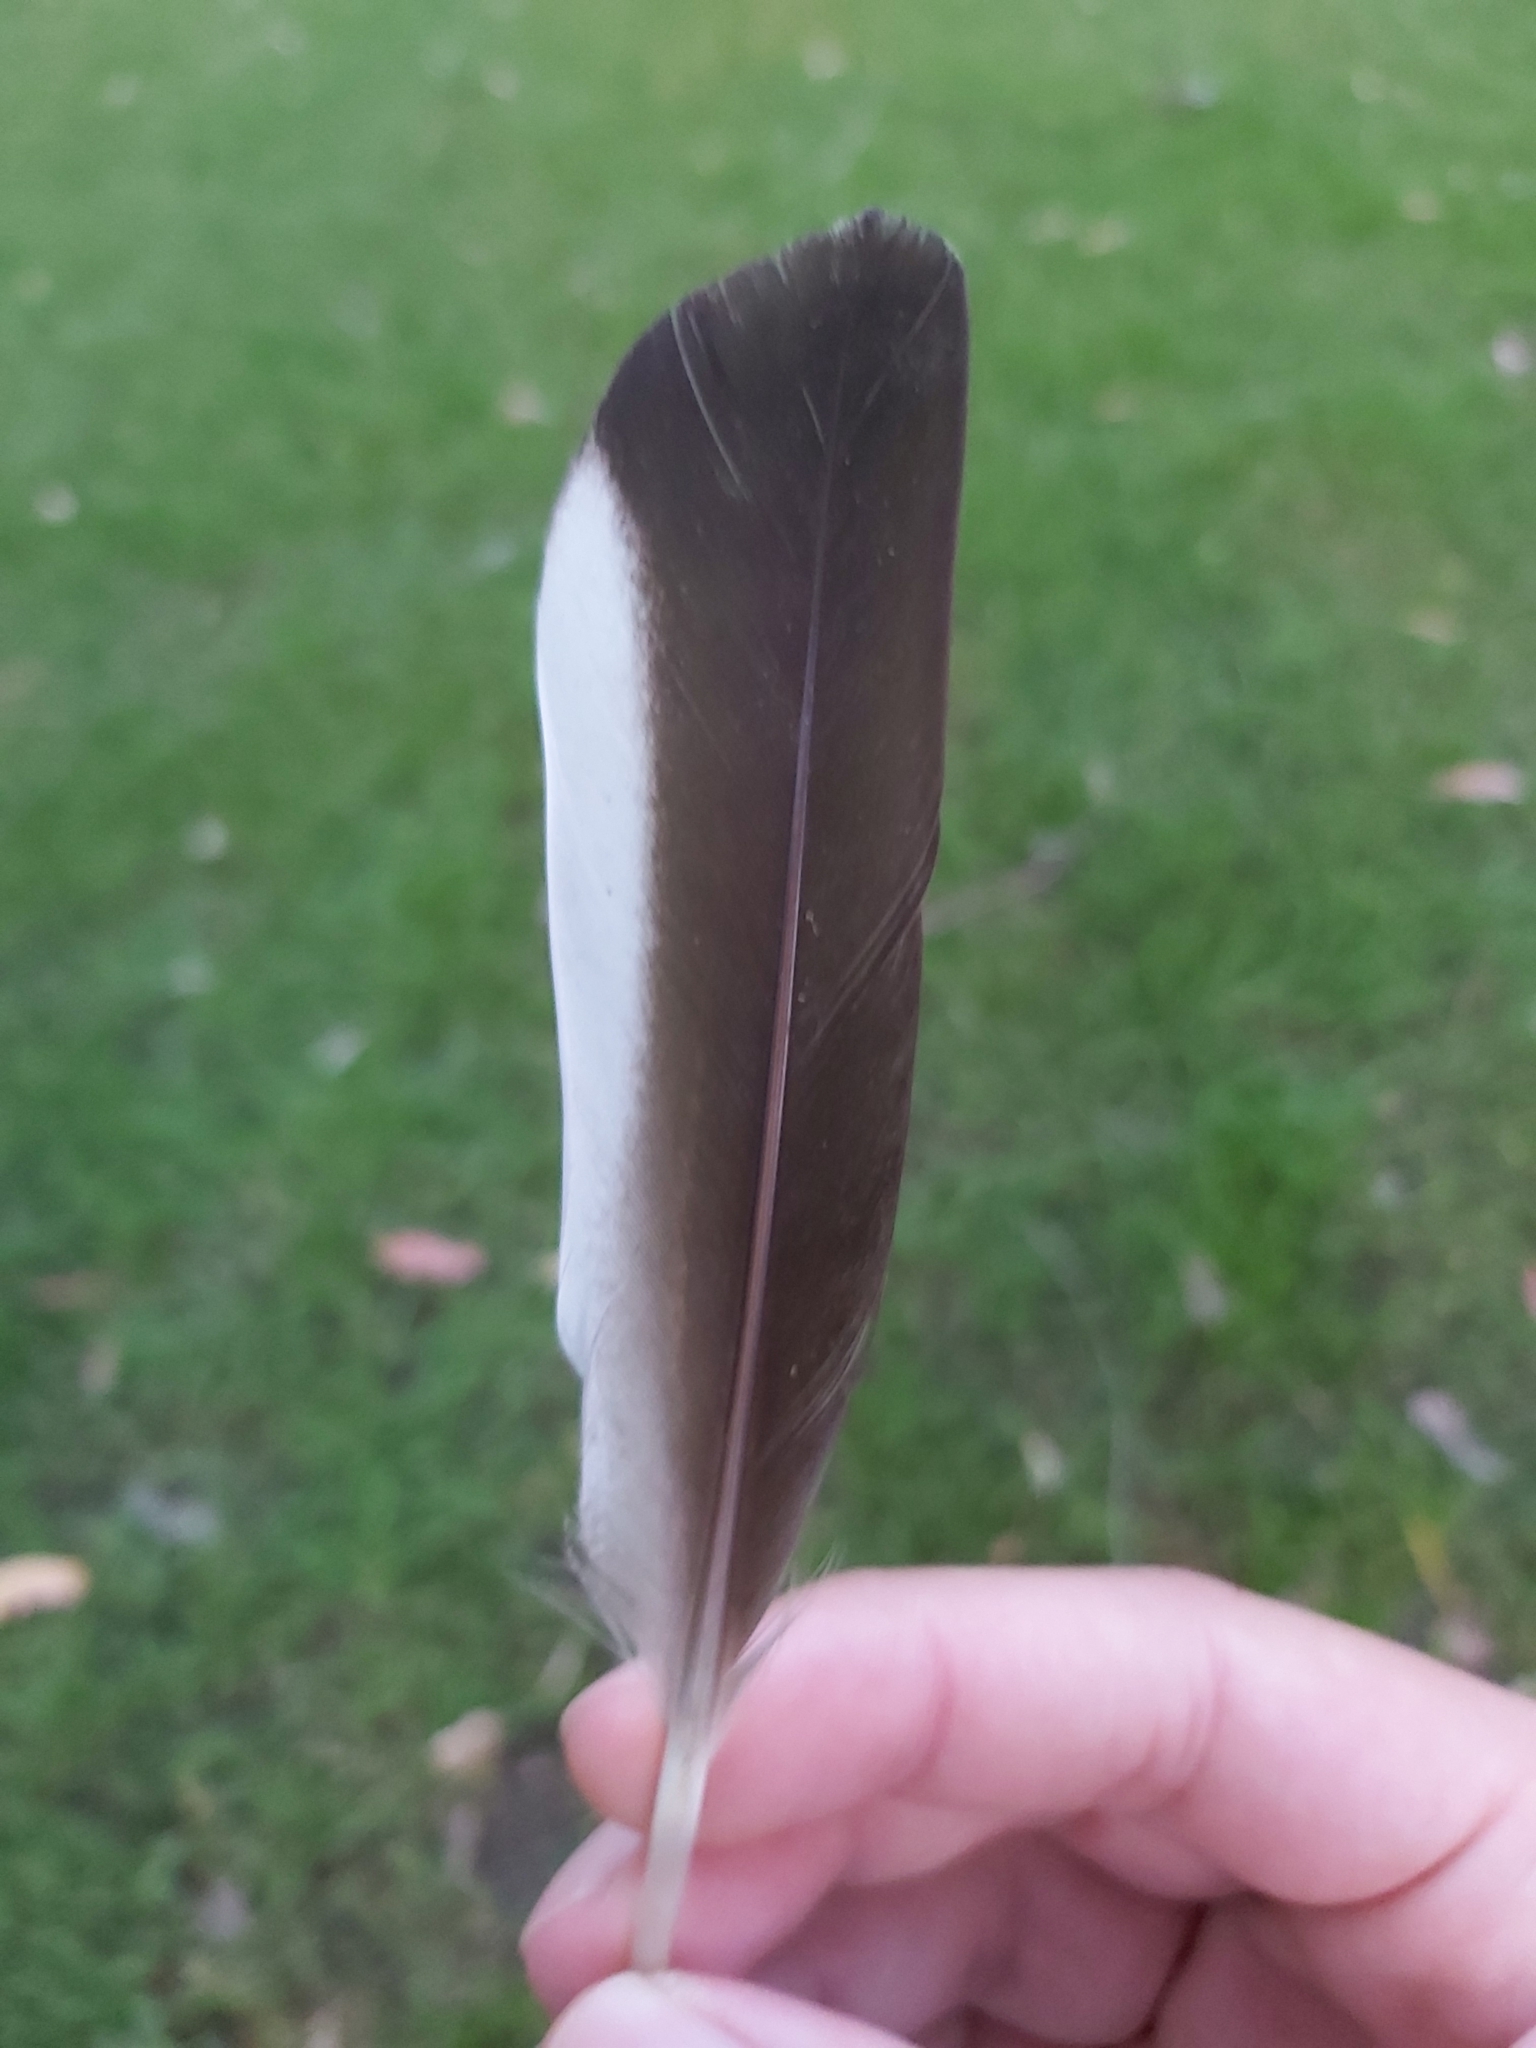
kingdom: Animalia
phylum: Chordata
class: Aves
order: Anseriformes
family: Anatidae
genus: Chenonetta
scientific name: Chenonetta jubata
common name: Maned duck
